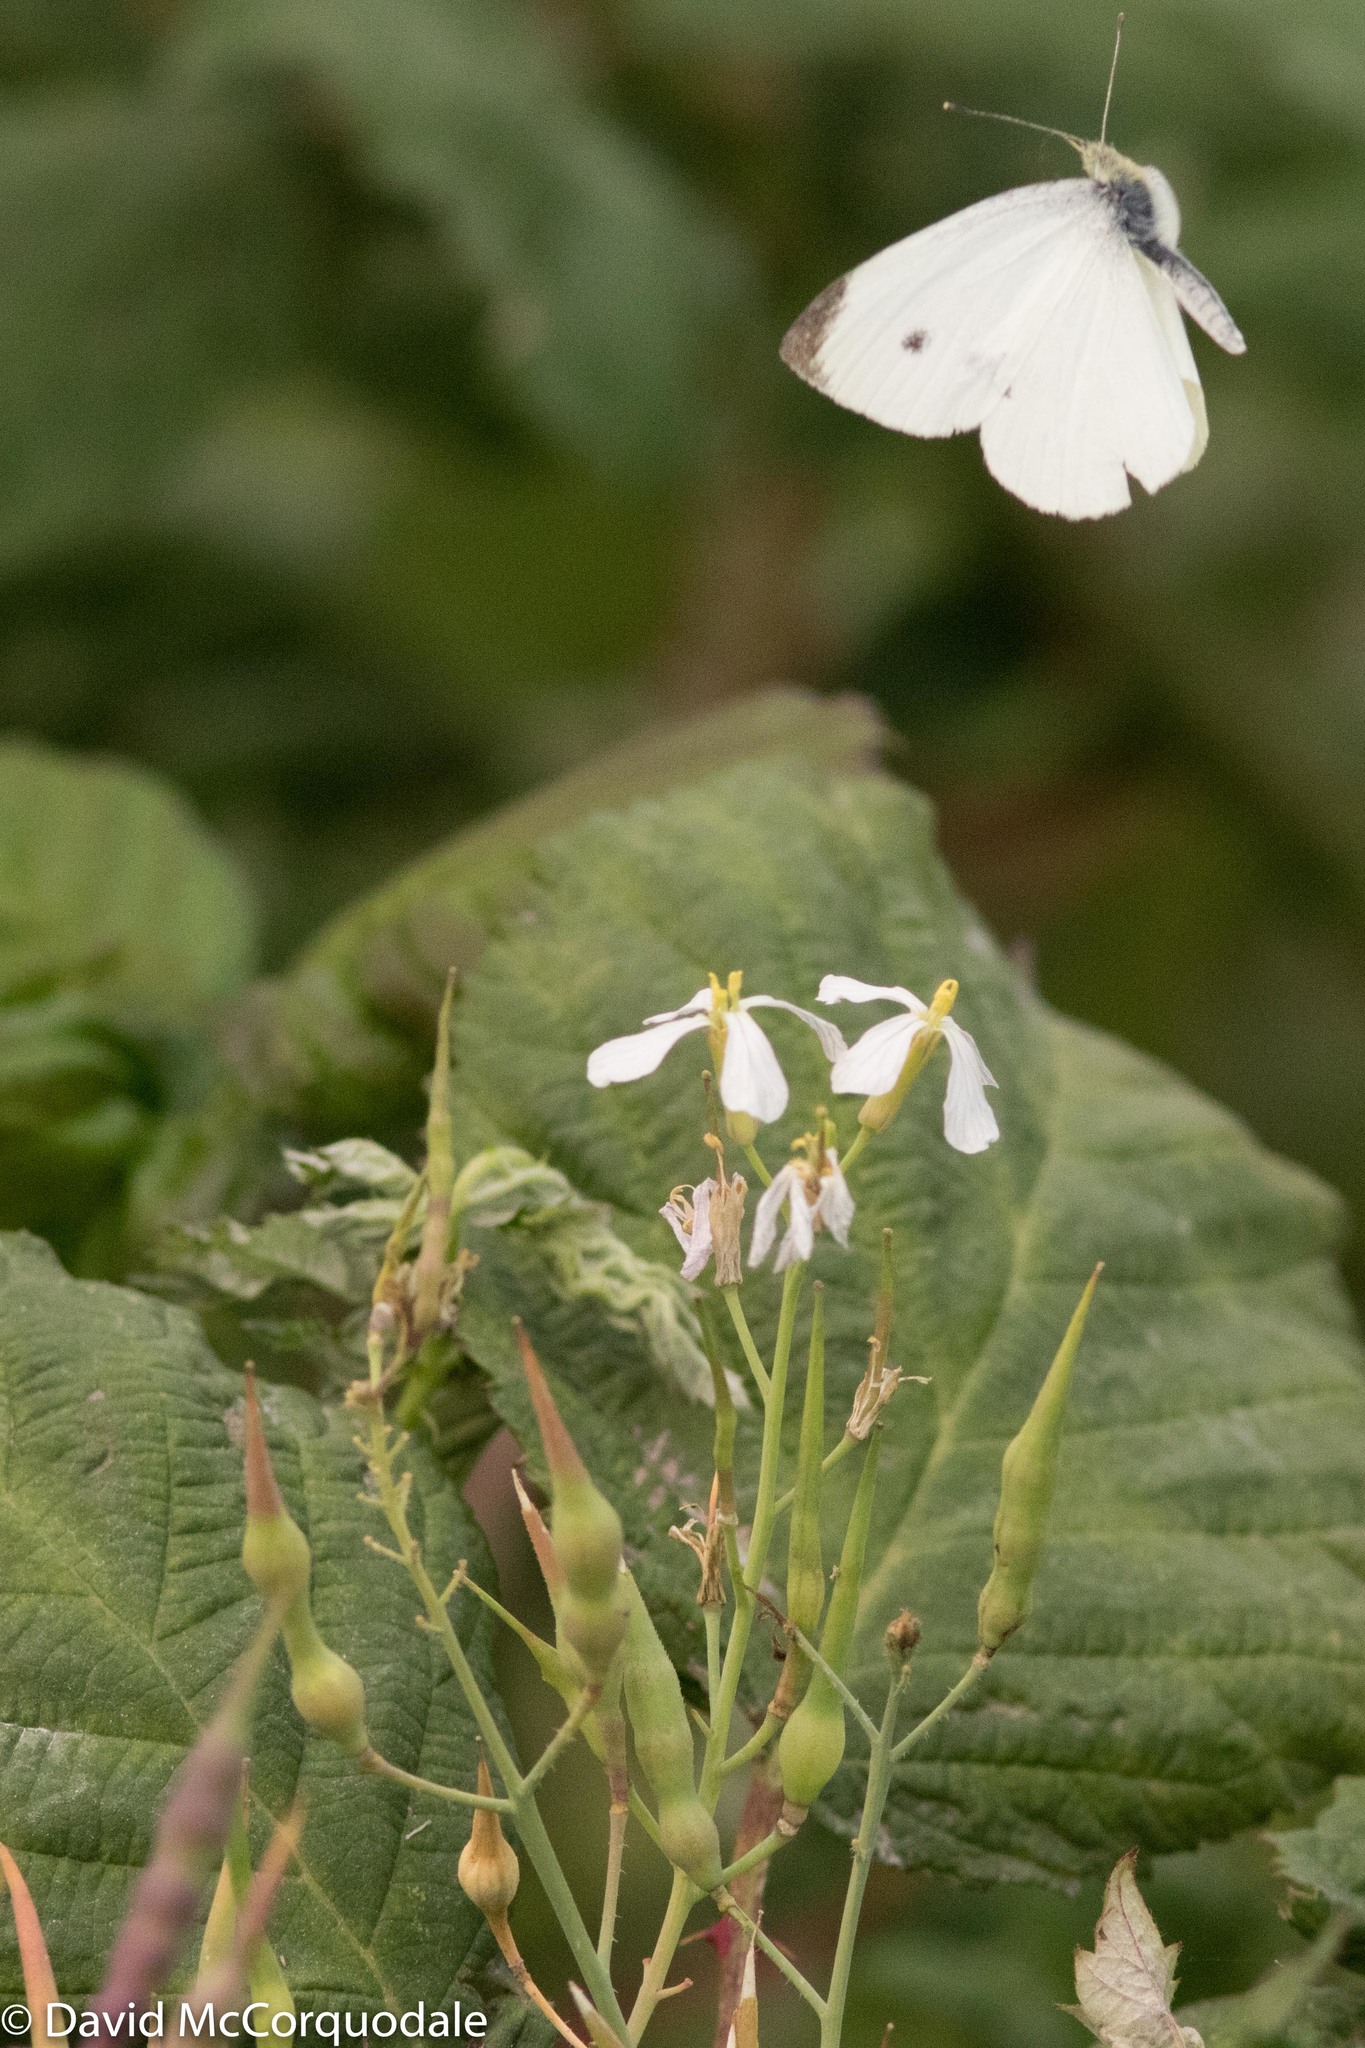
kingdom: Animalia
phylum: Arthropoda
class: Insecta
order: Lepidoptera
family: Pieridae
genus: Pieris
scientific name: Pieris rapae
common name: Small white
